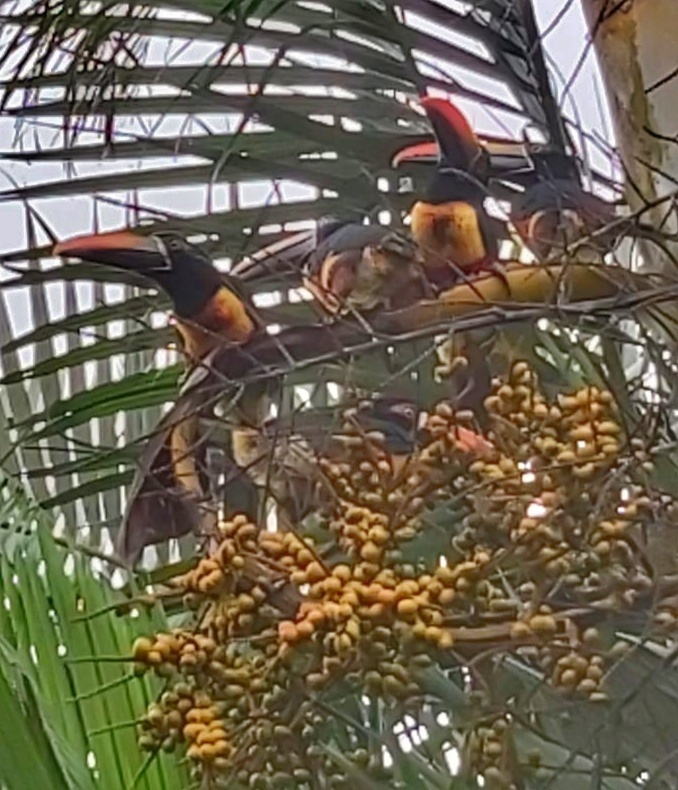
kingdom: Animalia
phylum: Chordata
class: Aves
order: Piciformes
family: Ramphastidae
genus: Pteroglossus
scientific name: Pteroglossus frantzii
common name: Fiery-billed aracari
